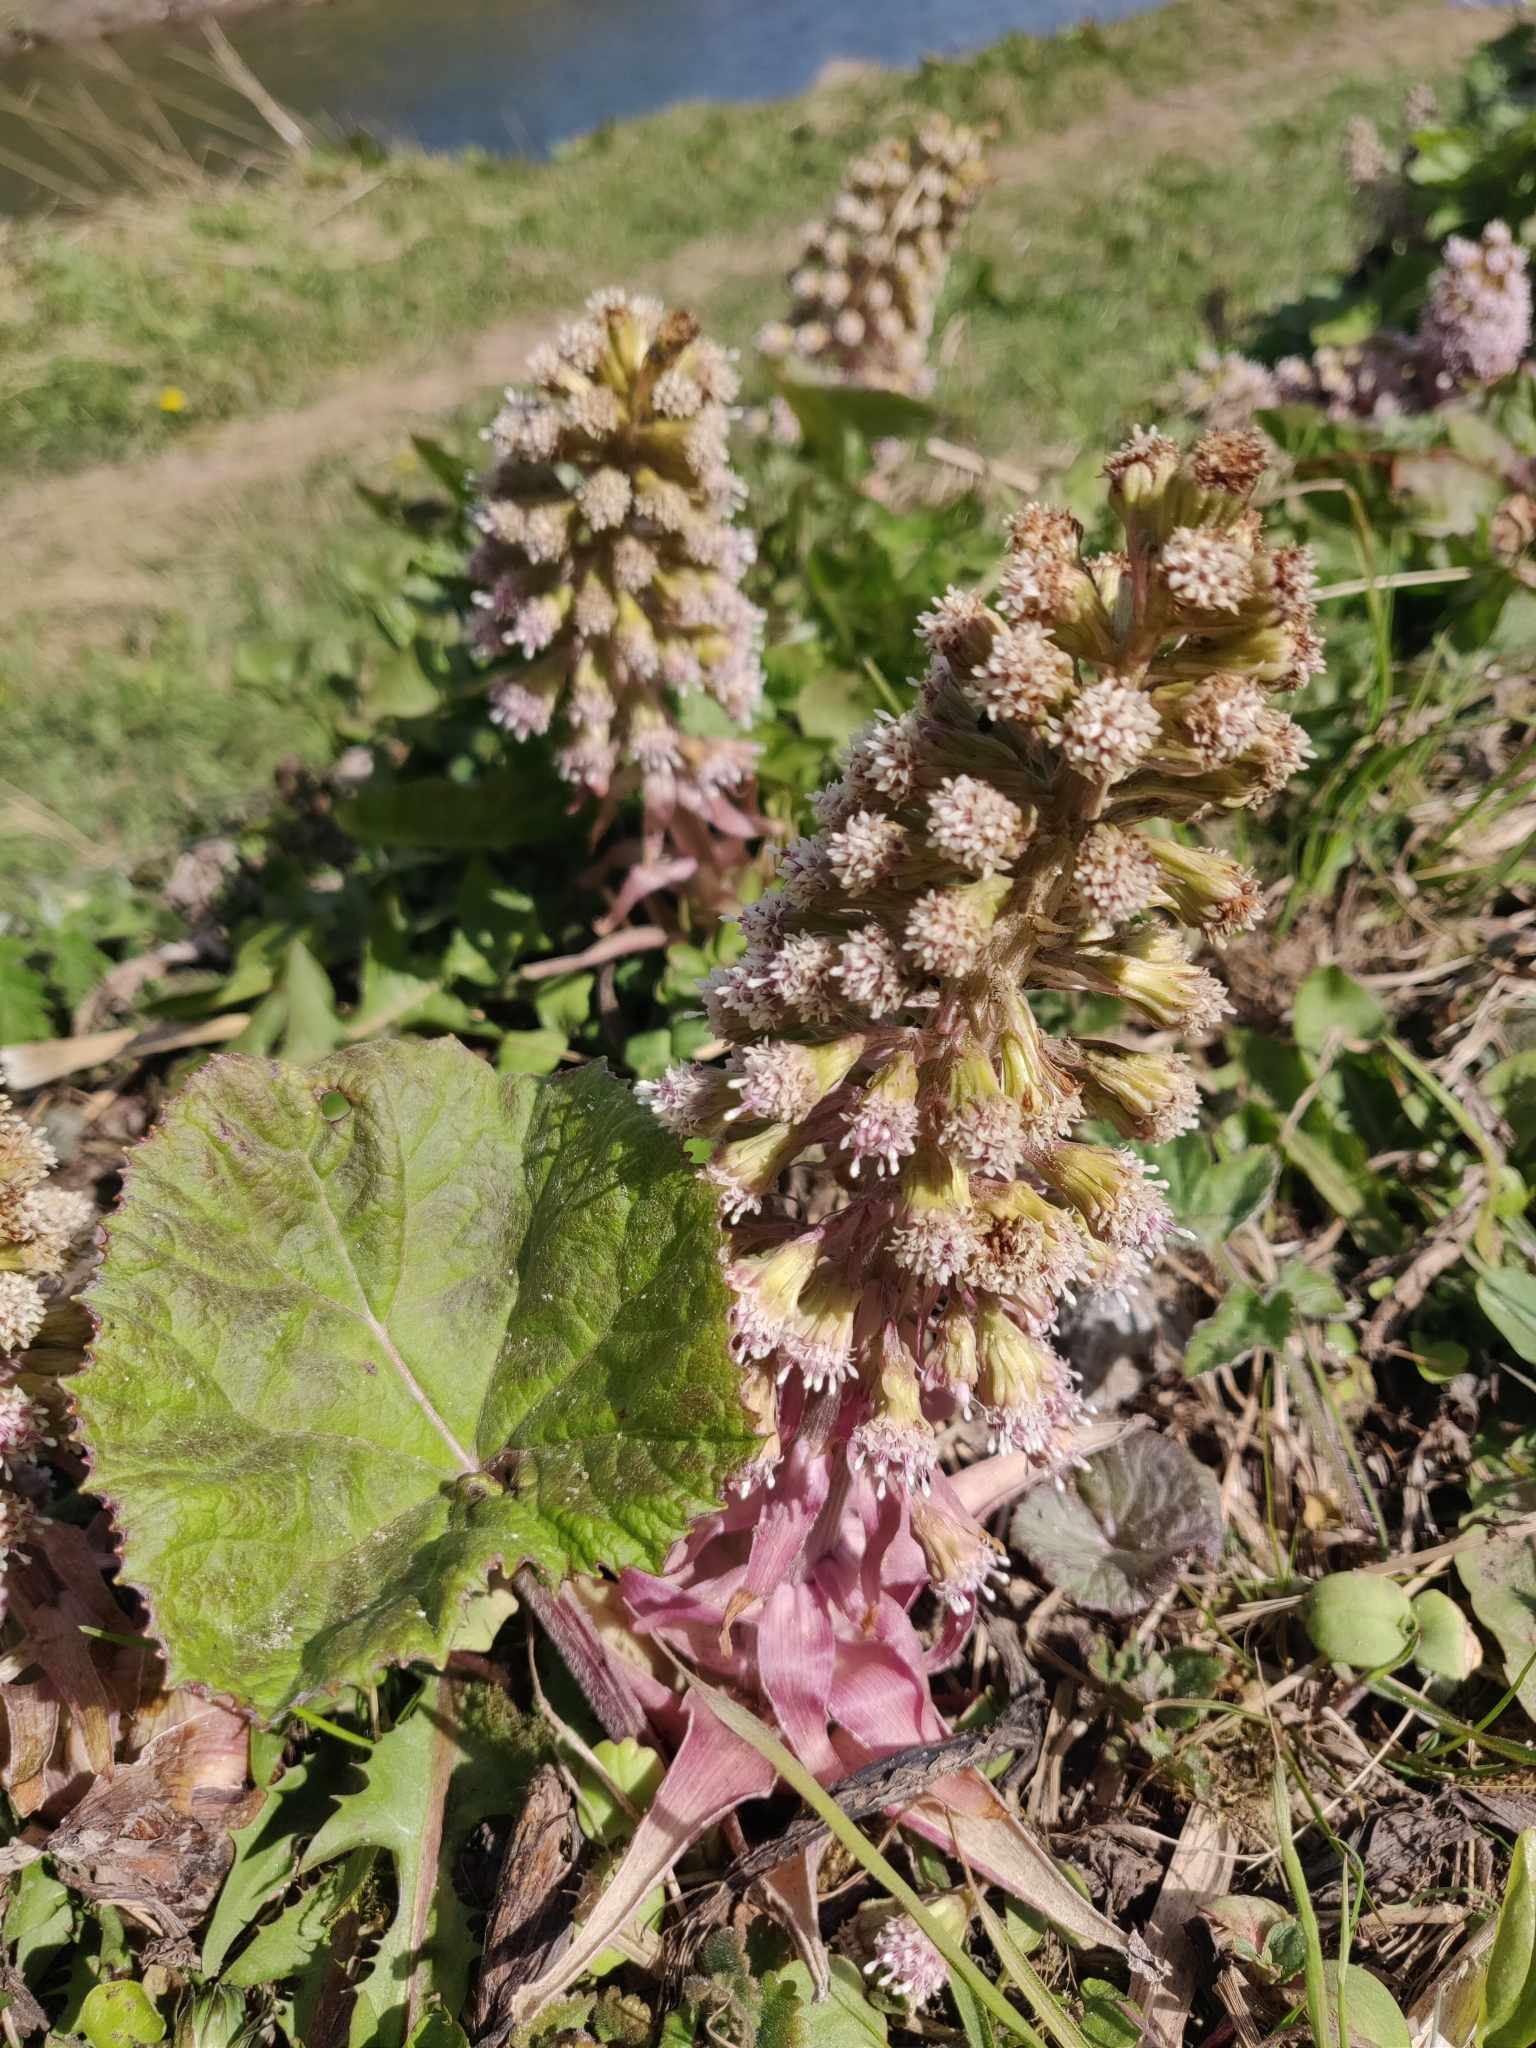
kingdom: Plantae
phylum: Tracheophyta
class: Magnoliopsida
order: Asterales
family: Asteraceae
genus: Petasites
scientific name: Petasites hybridus
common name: Butterbur
